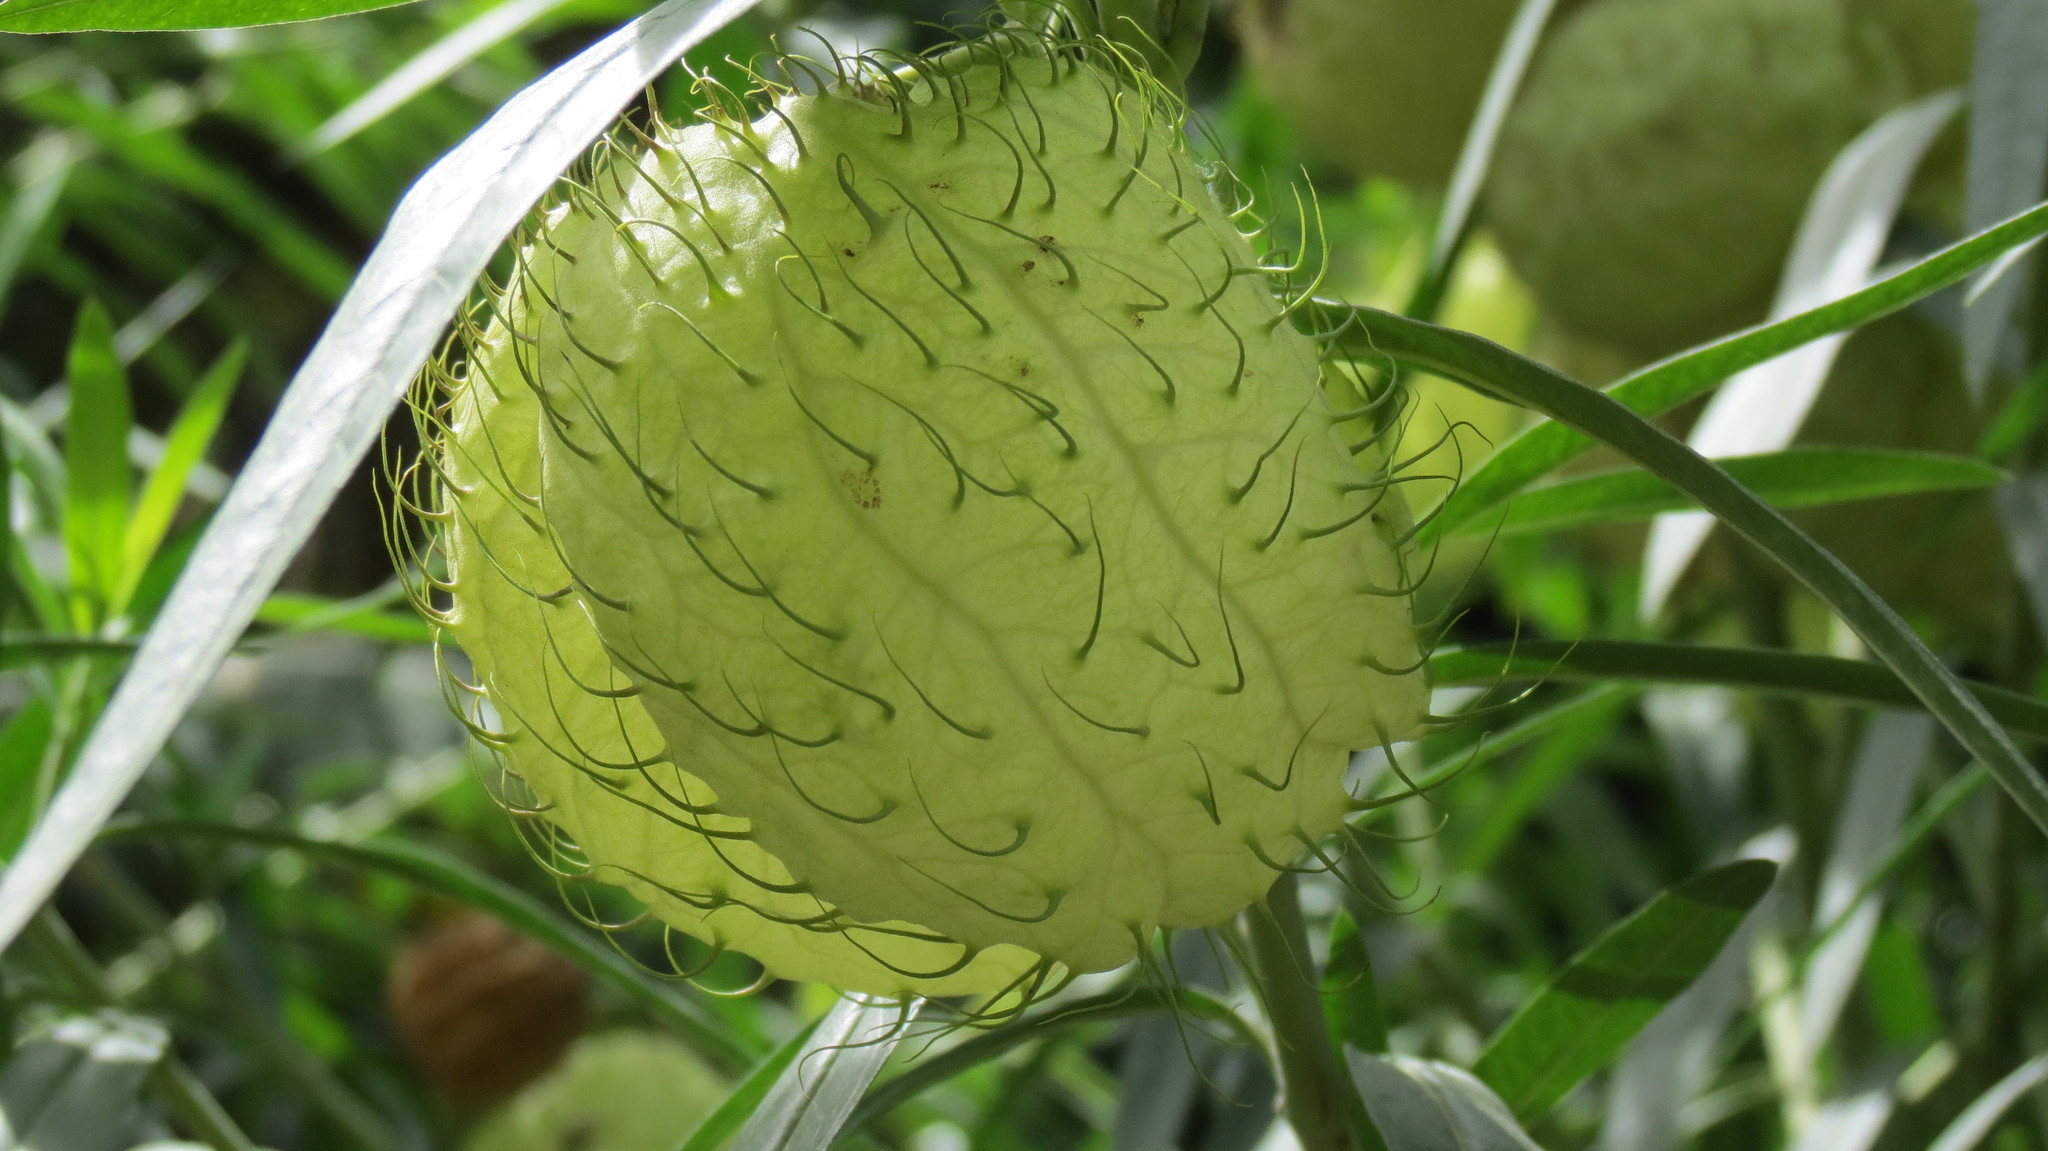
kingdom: Plantae
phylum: Tracheophyta
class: Magnoliopsida
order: Gentianales
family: Apocynaceae
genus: Gomphocarpus
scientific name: Gomphocarpus physocarpus
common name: Balloon cotton bush
